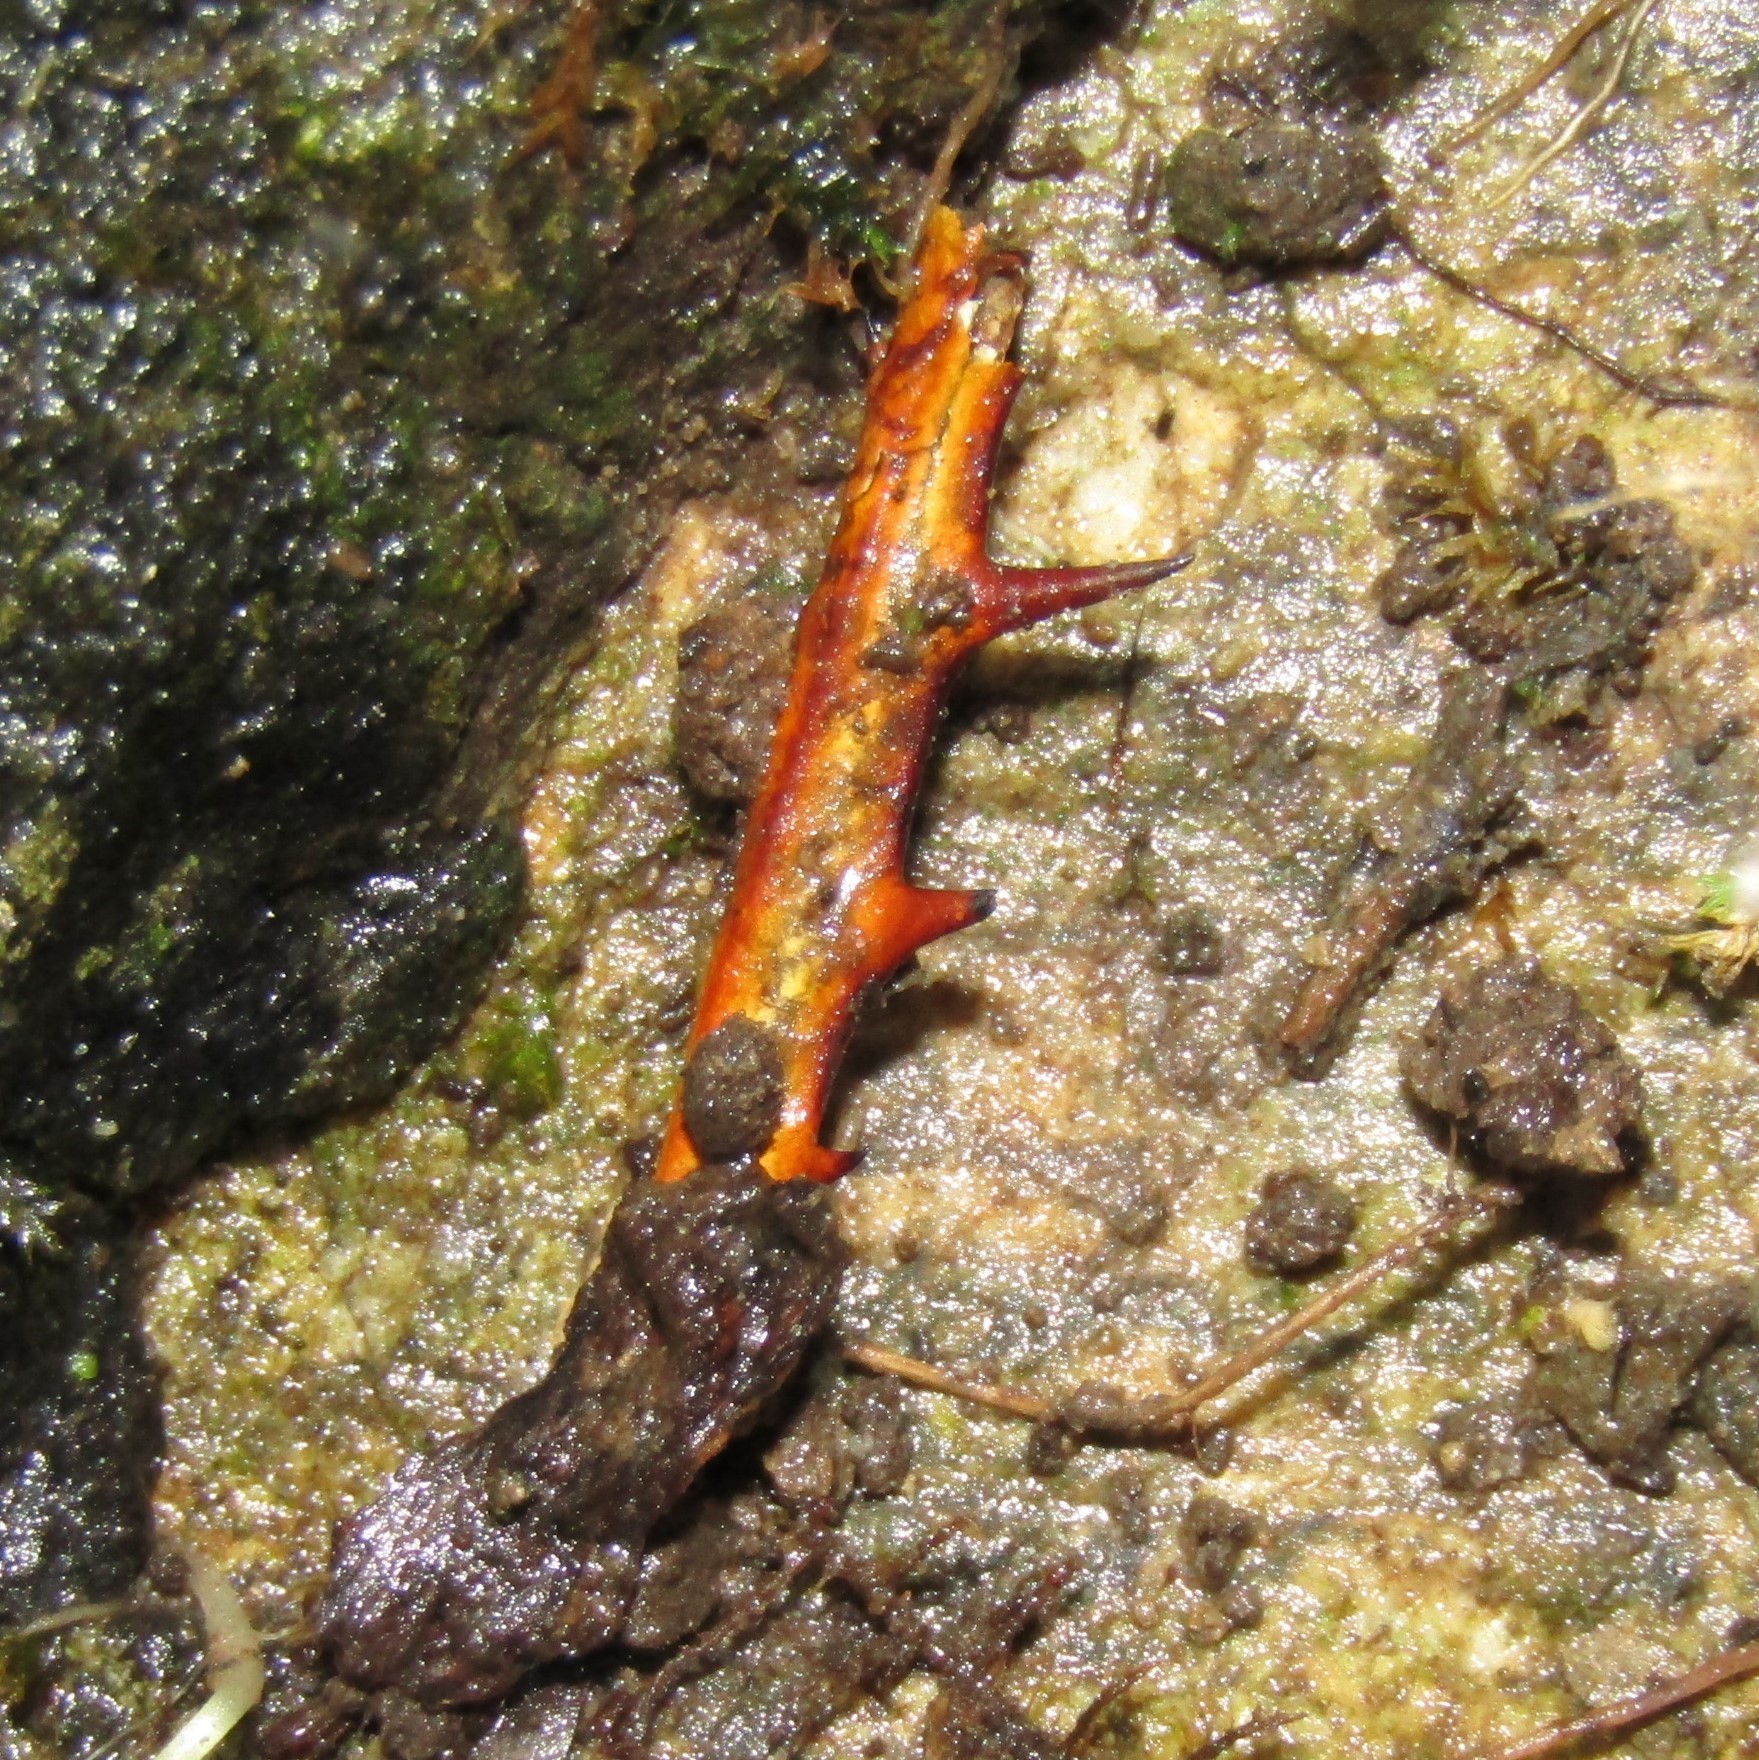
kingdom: Animalia
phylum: Arthropoda
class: Insecta
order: Orthoptera
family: Anostostomatidae
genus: Hemideina
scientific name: Hemideina crassidens
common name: Wellington tree weta
